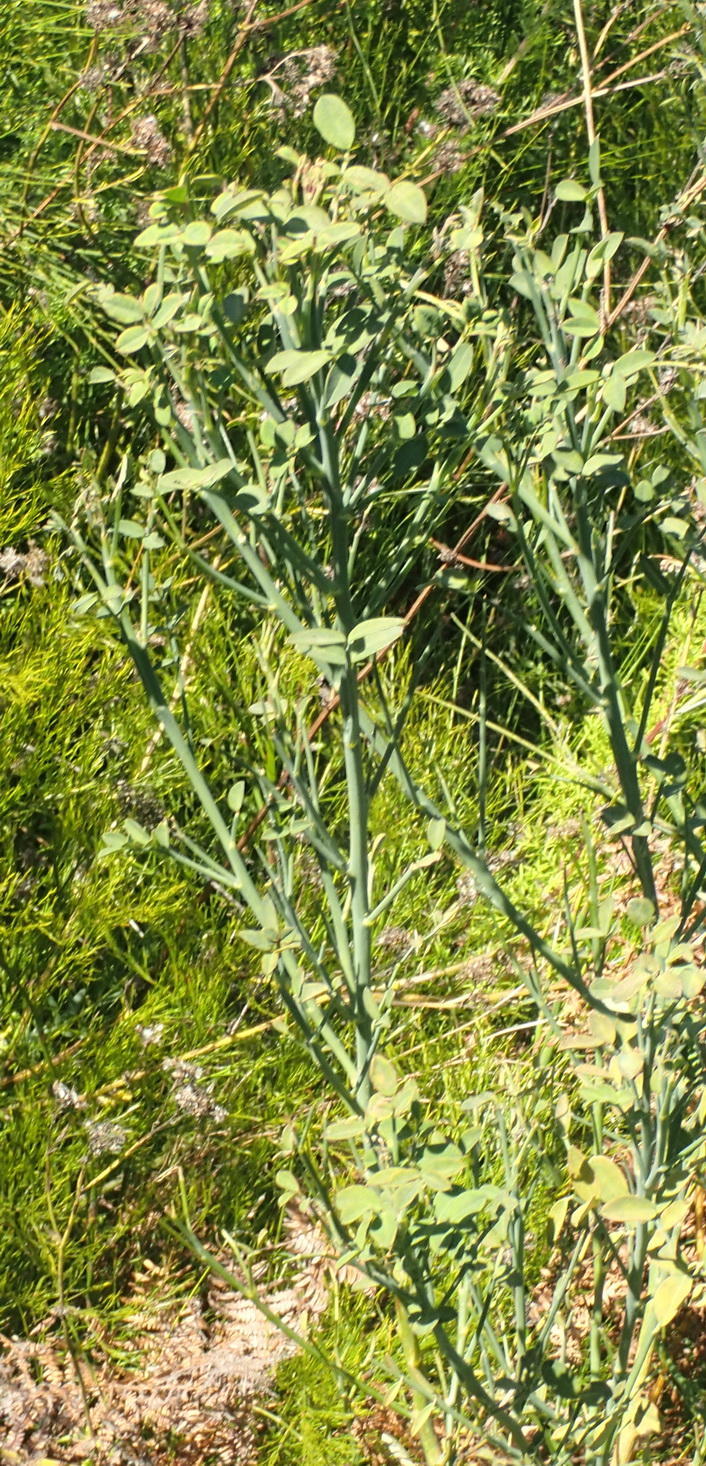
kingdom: Plantae
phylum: Tracheophyta
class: Magnoliopsida
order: Fabales
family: Fabaceae
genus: Indigofera
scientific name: Indigofera filifolia
